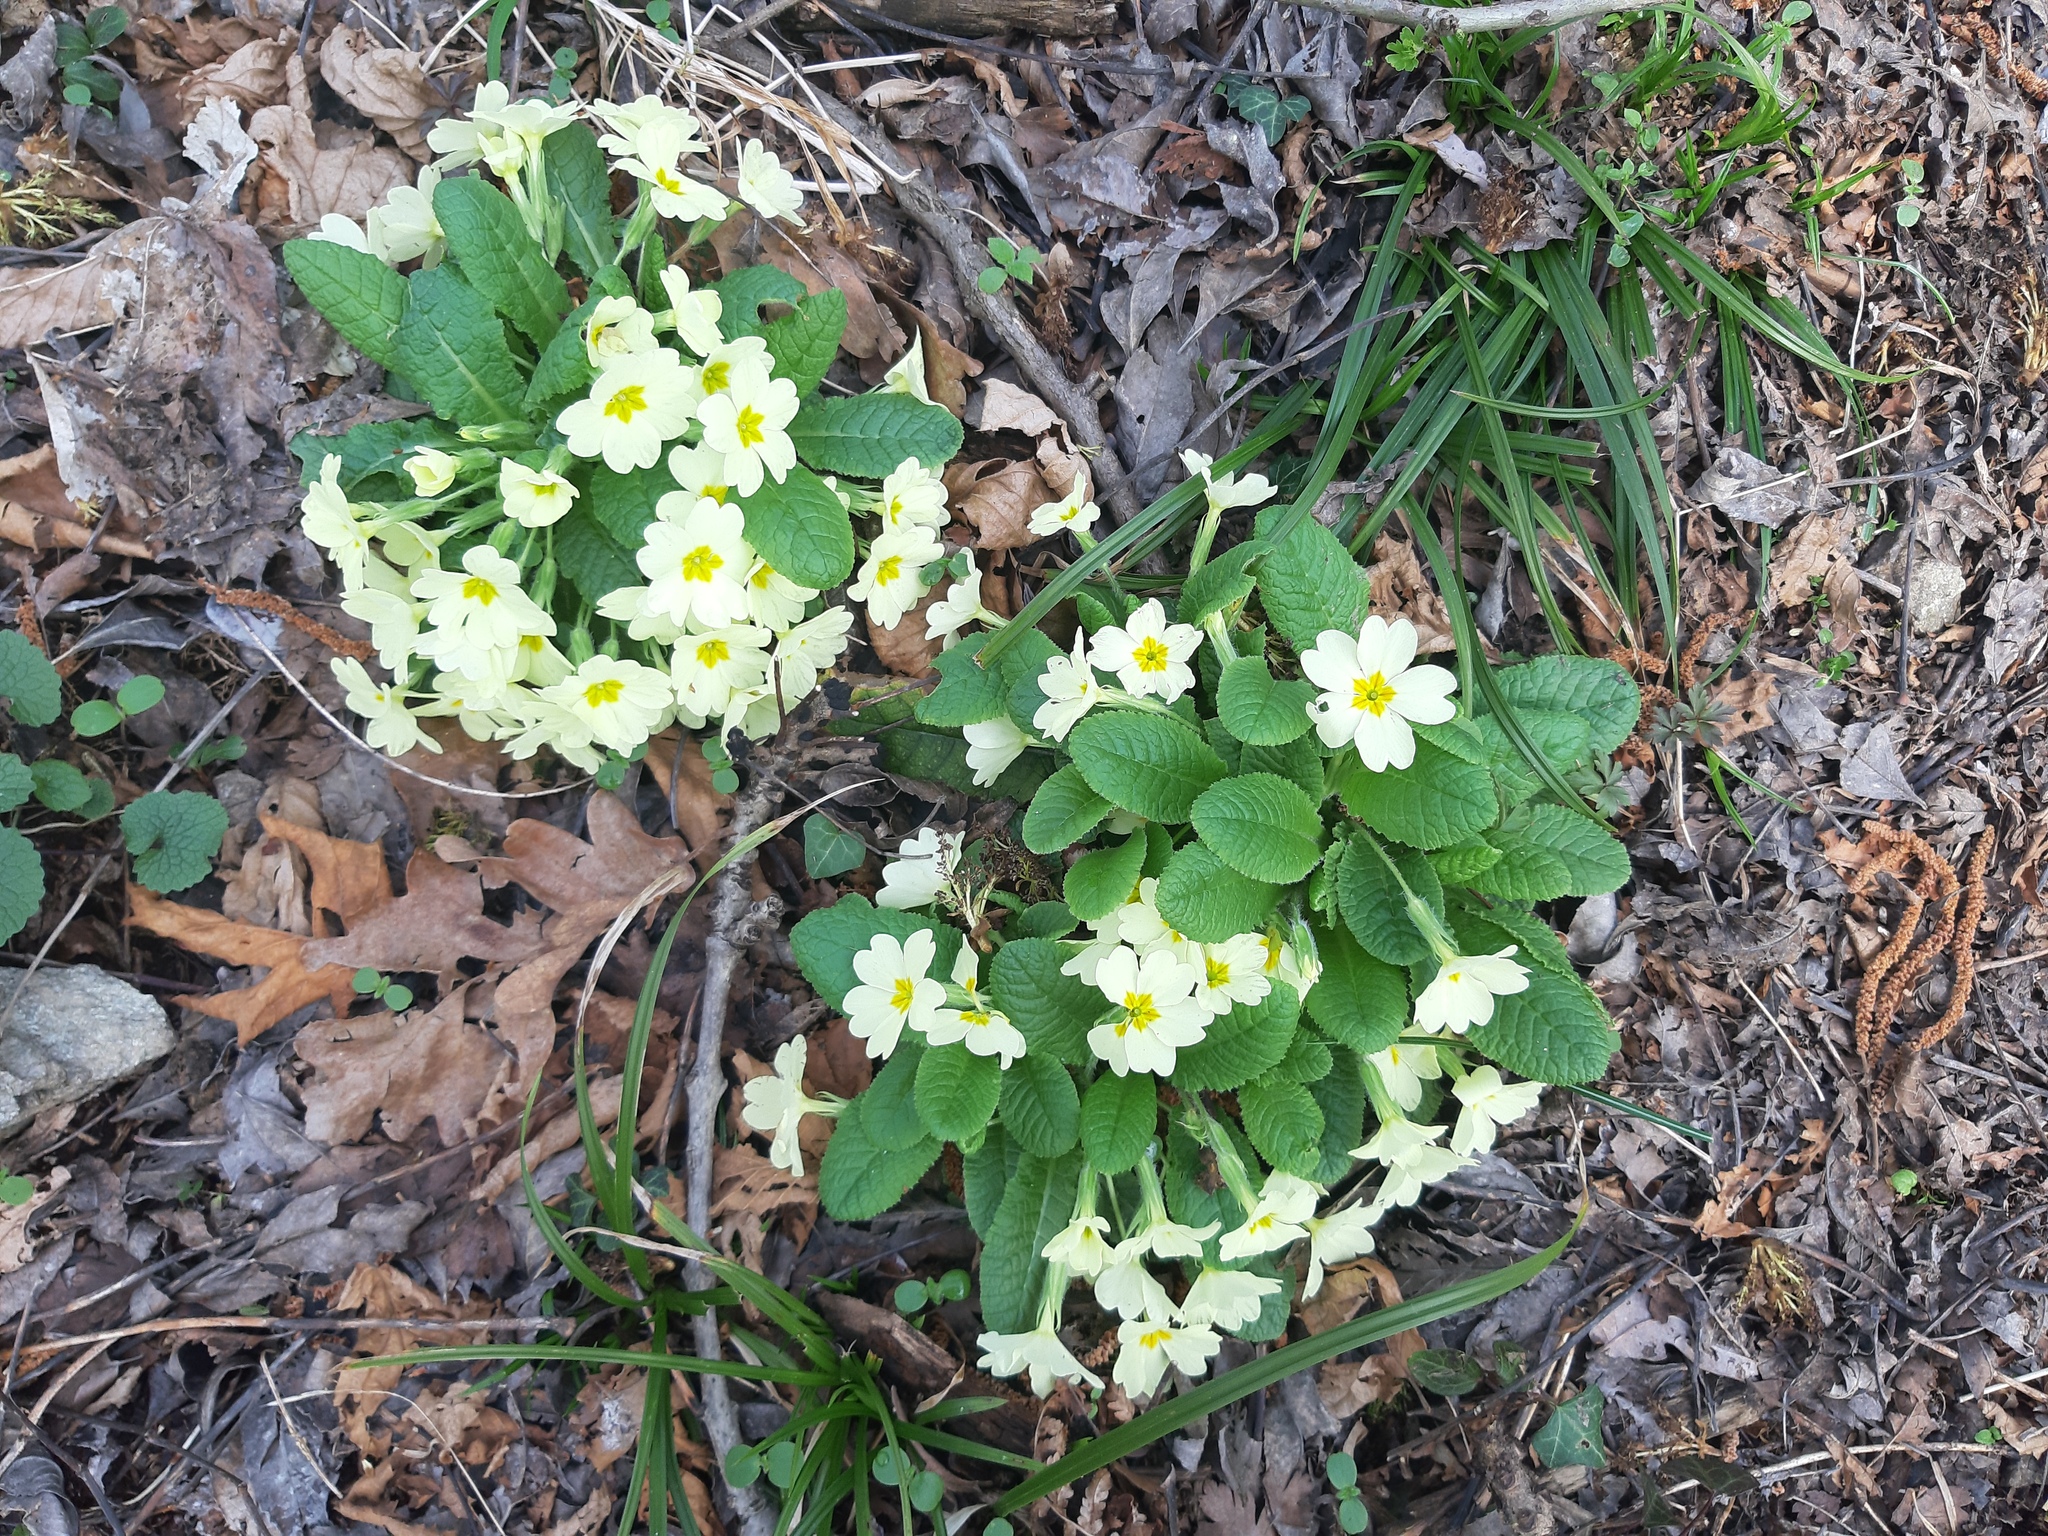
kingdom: Plantae
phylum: Tracheophyta
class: Magnoliopsida
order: Ericales
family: Primulaceae
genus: Primula
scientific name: Primula vulgaris
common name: Primrose
